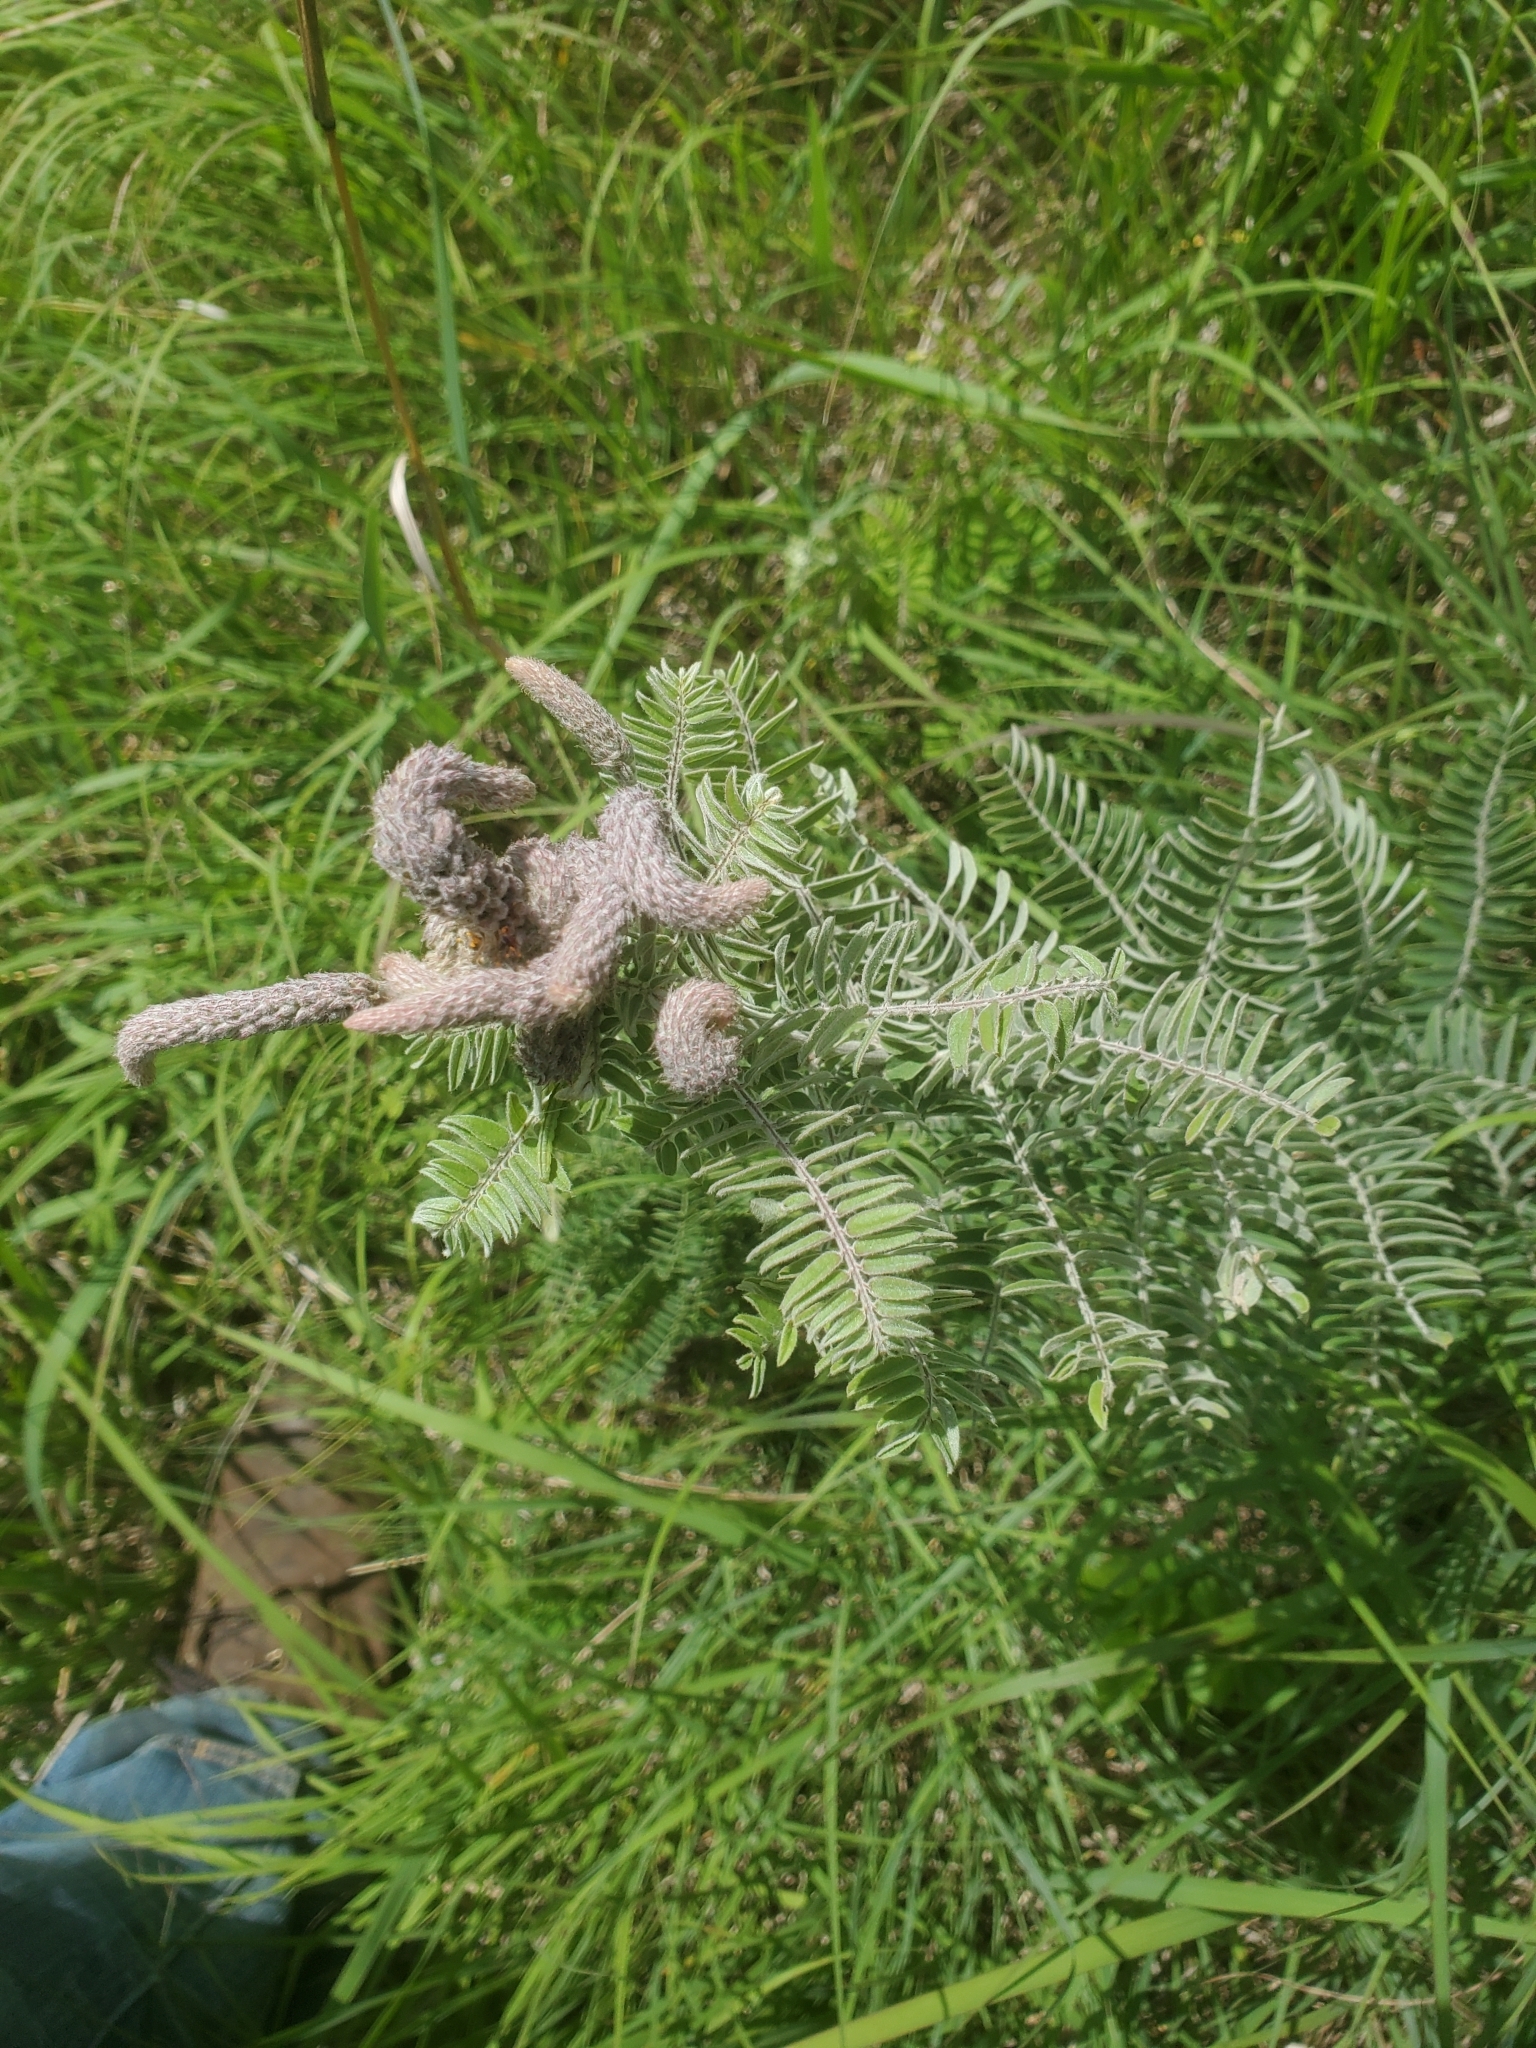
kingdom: Plantae
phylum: Tracheophyta
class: Magnoliopsida
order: Fabales
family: Fabaceae
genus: Amorpha
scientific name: Amorpha canescens
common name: Leadplant
